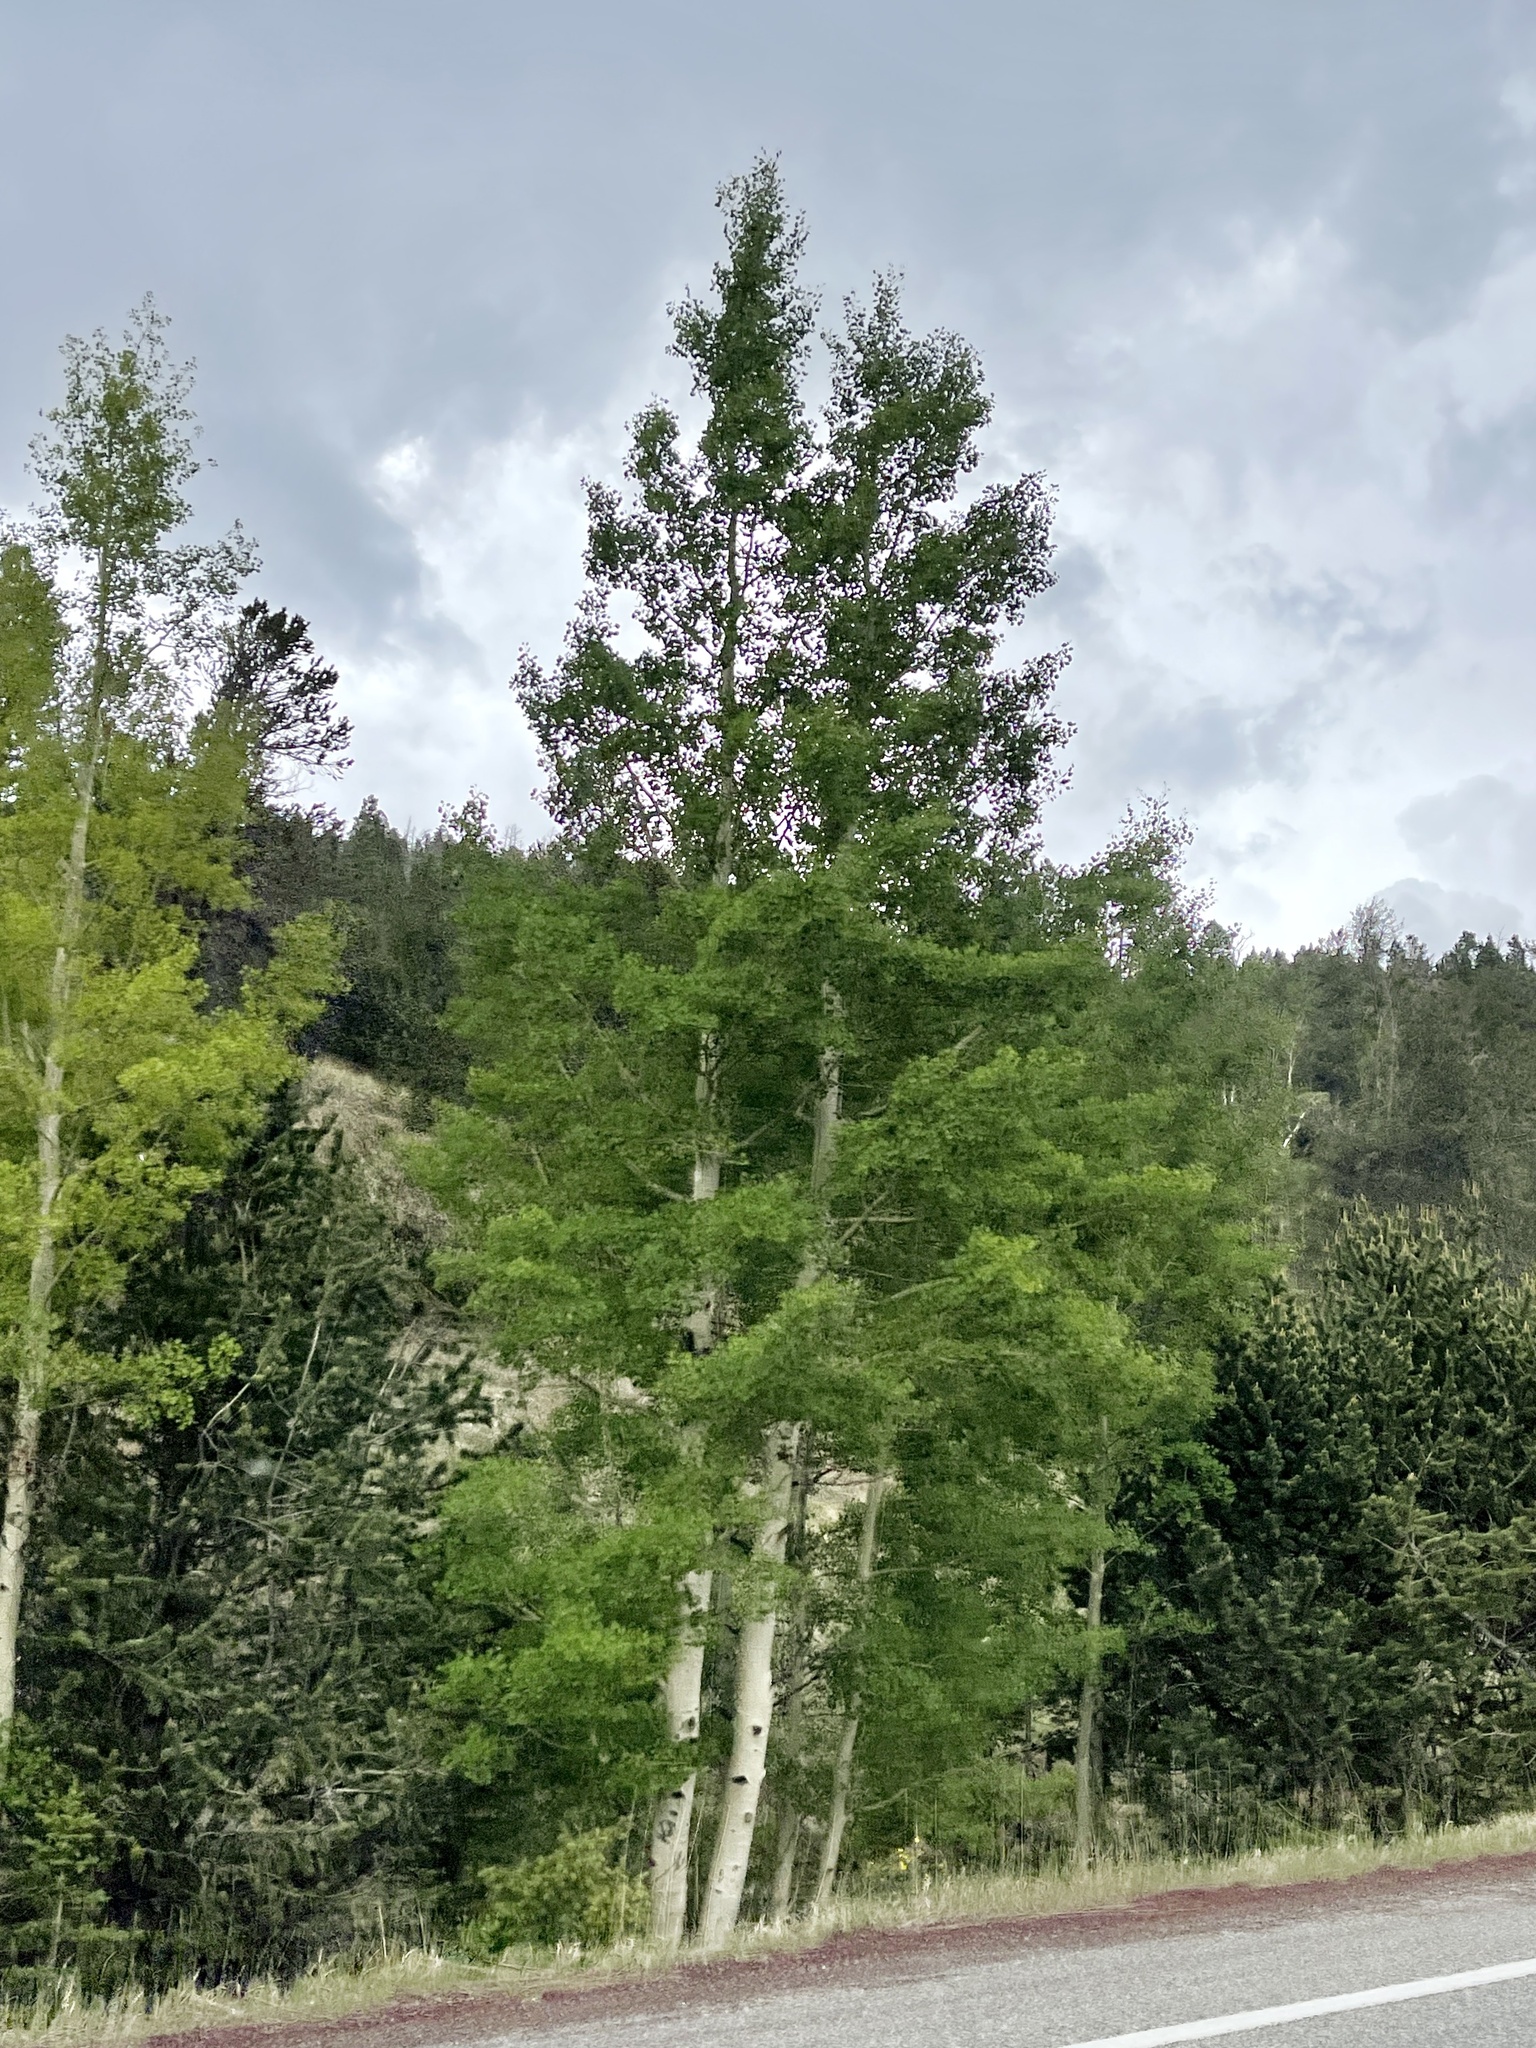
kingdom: Plantae
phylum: Tracheophyta
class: Magnoliopsida
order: Malpighiales
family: Salicaceae
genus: Populus
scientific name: Populus tremuloides
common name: Quaking aspen
